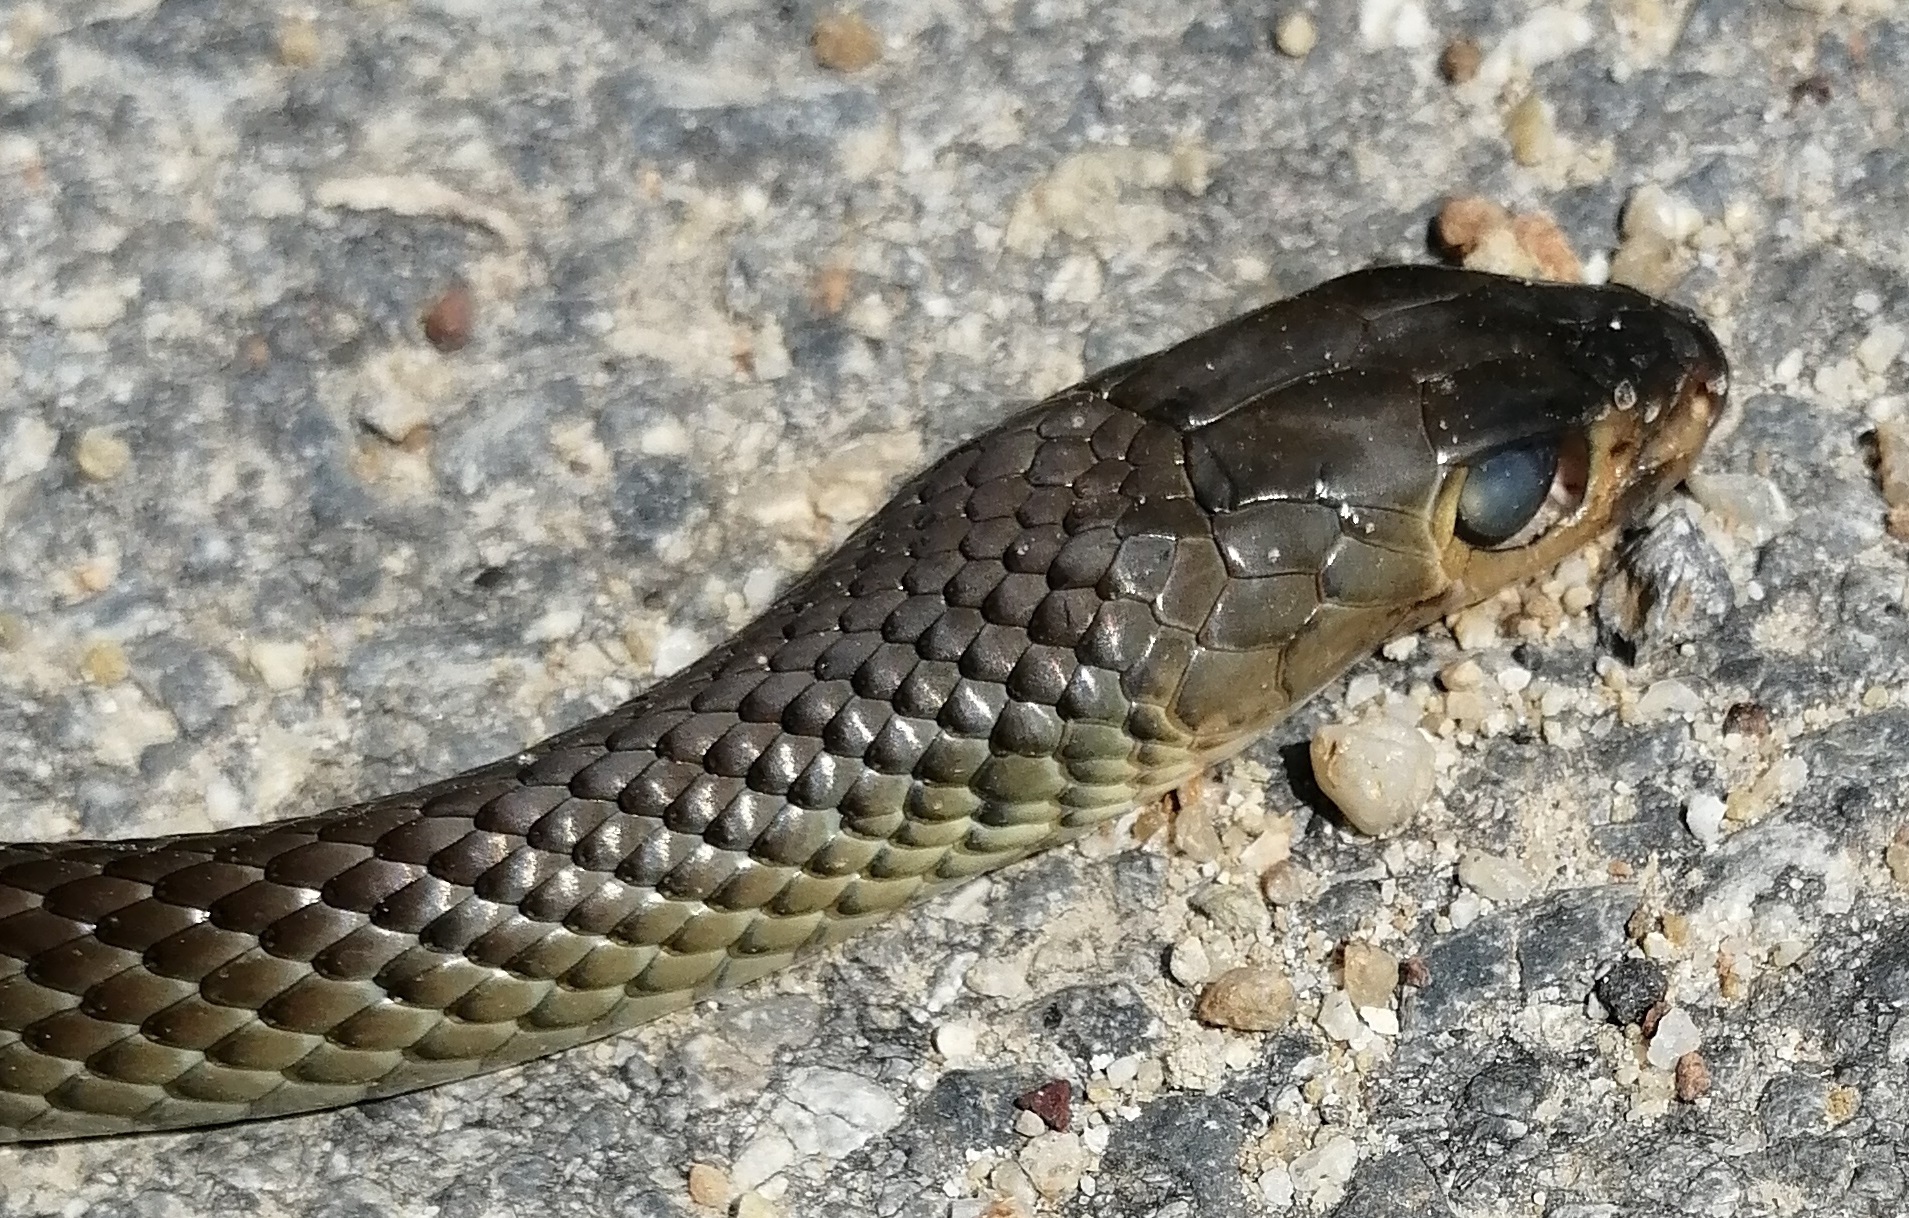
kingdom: Animalia
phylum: Chordata
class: Squamata
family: Colubridae
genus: Ptyas
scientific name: Ptyas korros
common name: Indo-chinese rat snake
